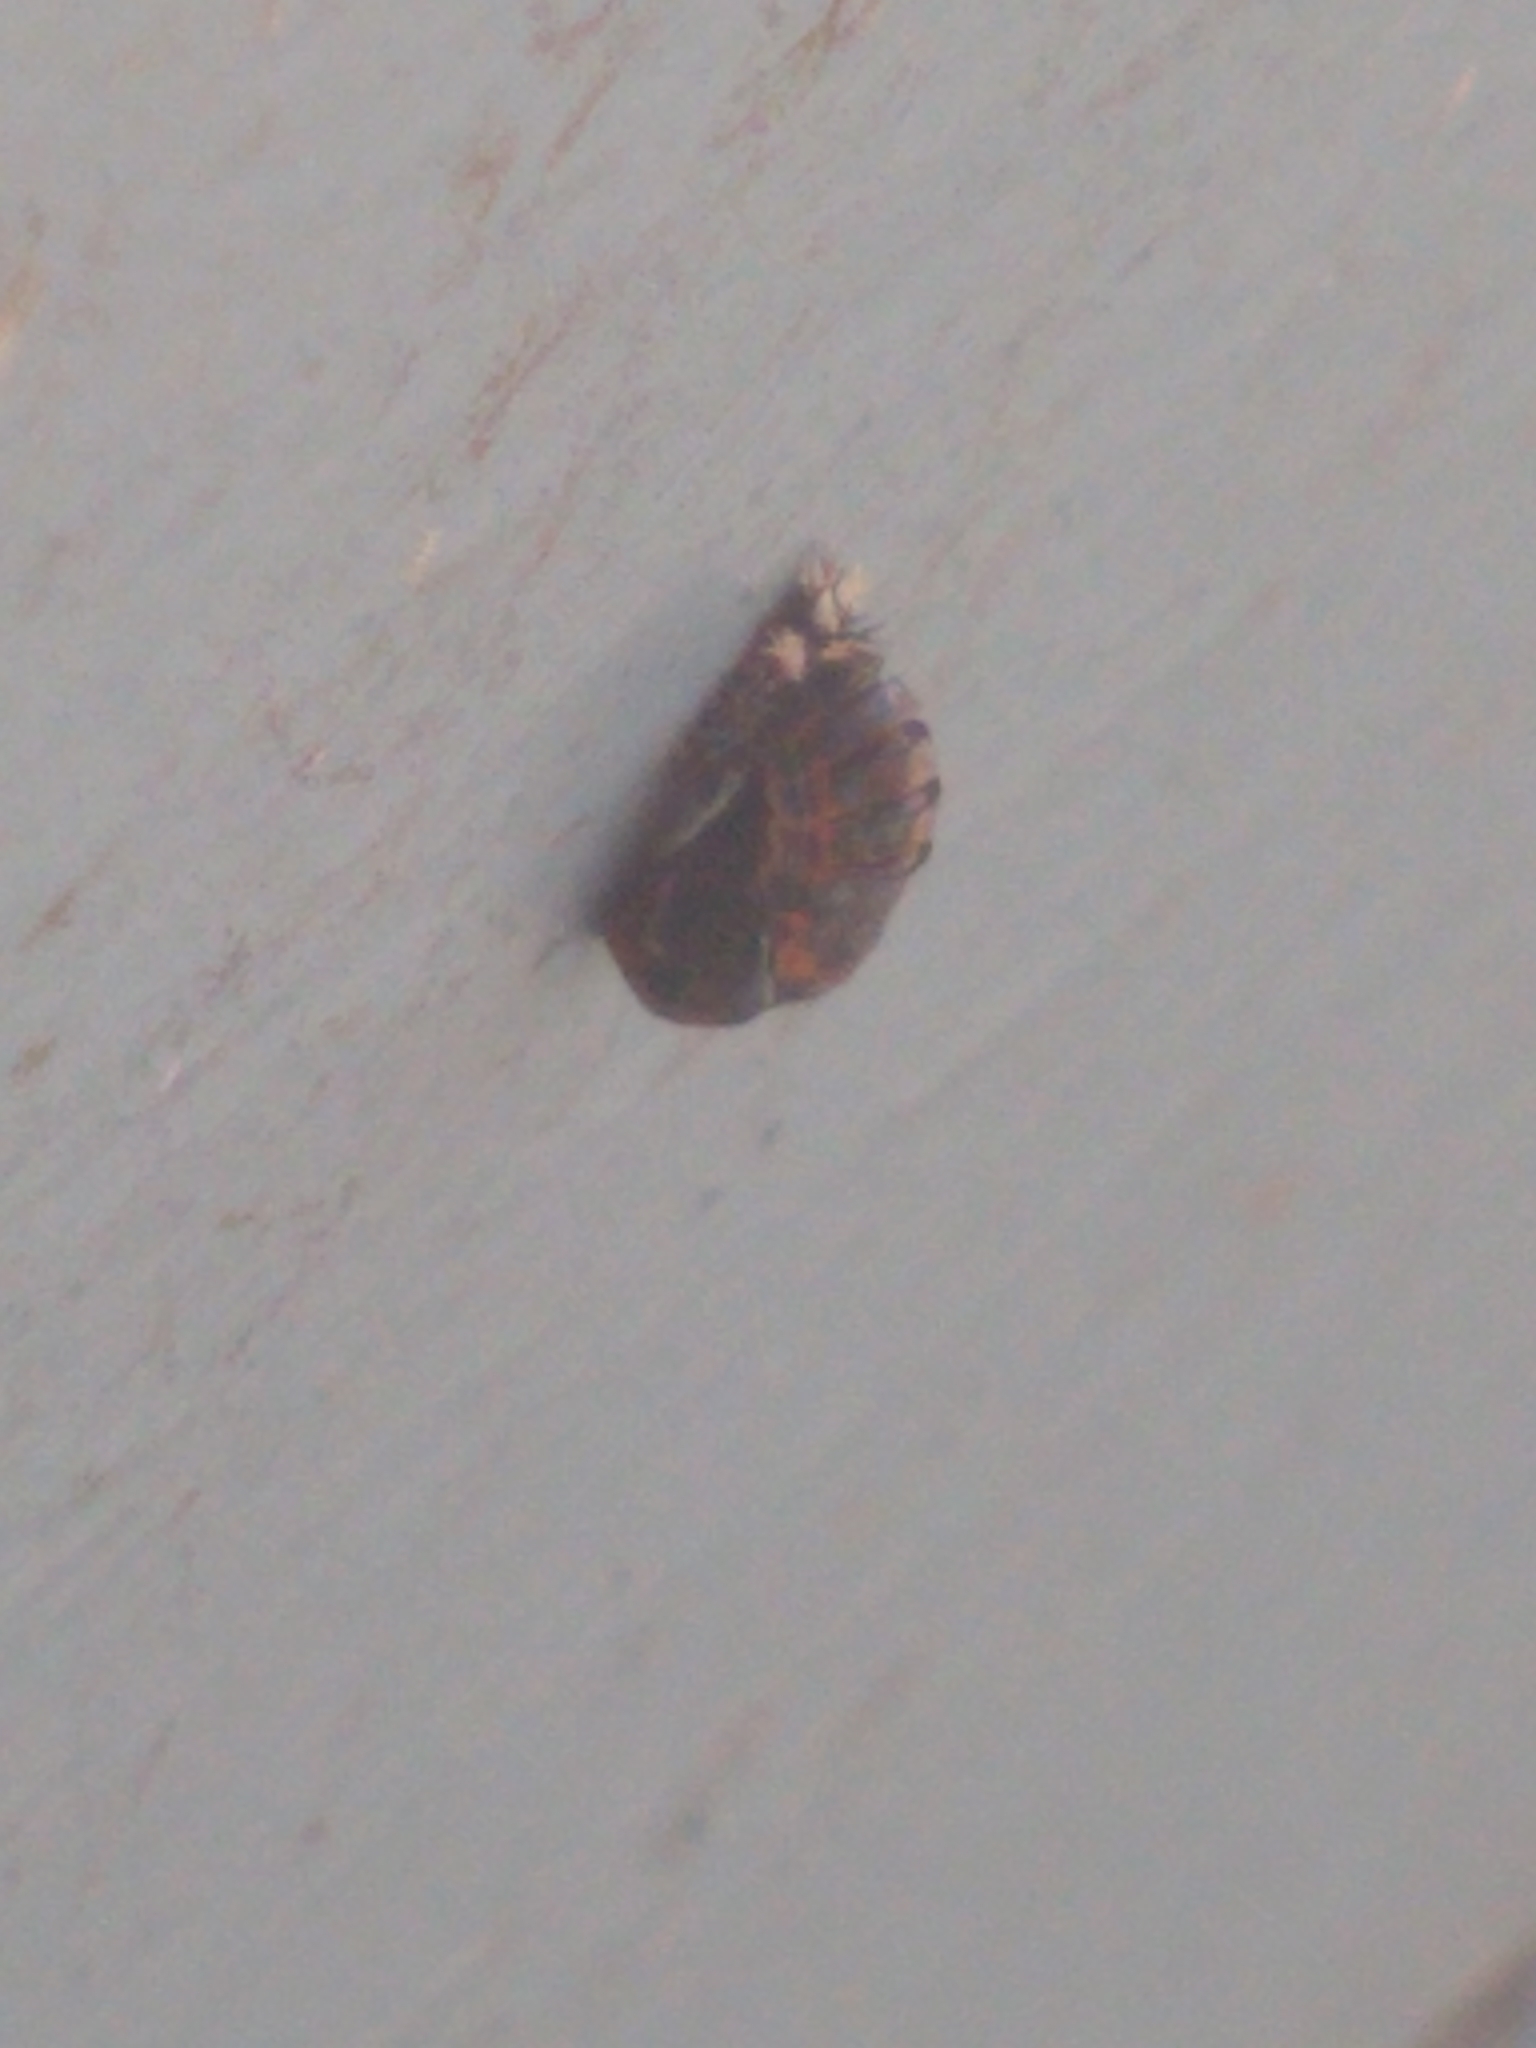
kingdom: Animalia
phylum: Arthropoda
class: Insecta
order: Coleoptera
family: Coccinellidae
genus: Harmonia
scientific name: Harmonia axyridis
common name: Harlequin ladybird
